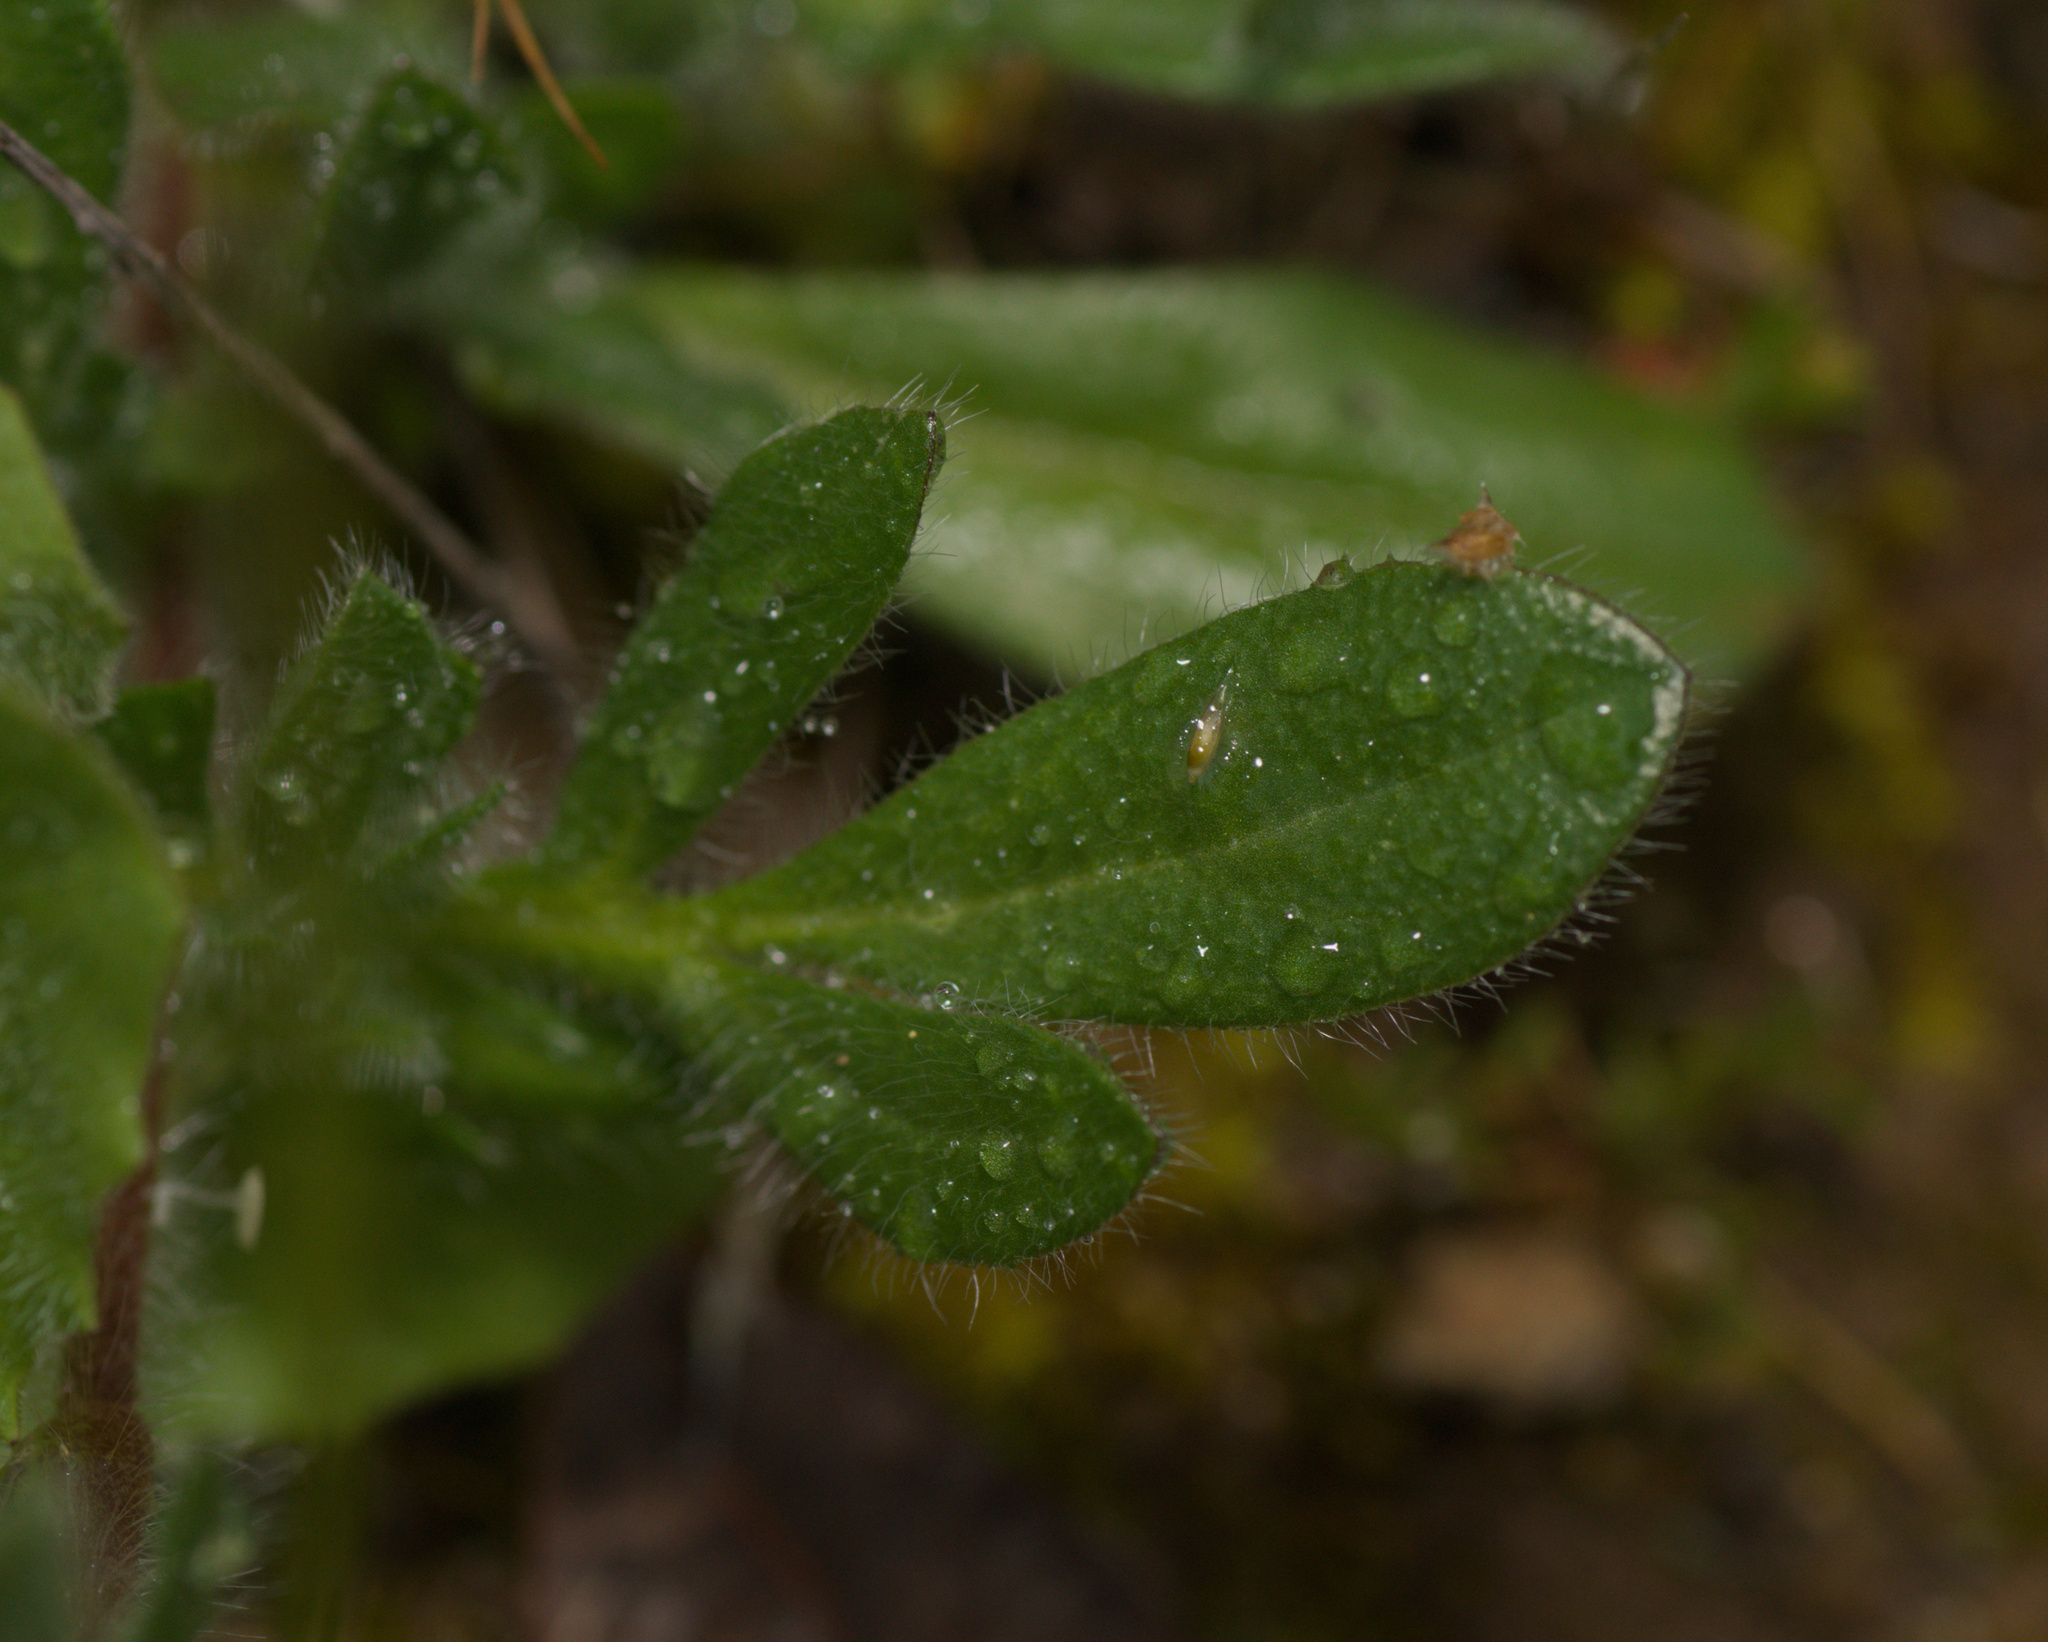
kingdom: Plantae
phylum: Tracheophyta
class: Magnoliopsida
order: Fabales
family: Fabaceae
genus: Anthyllis
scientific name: Anthyllis lotoides
